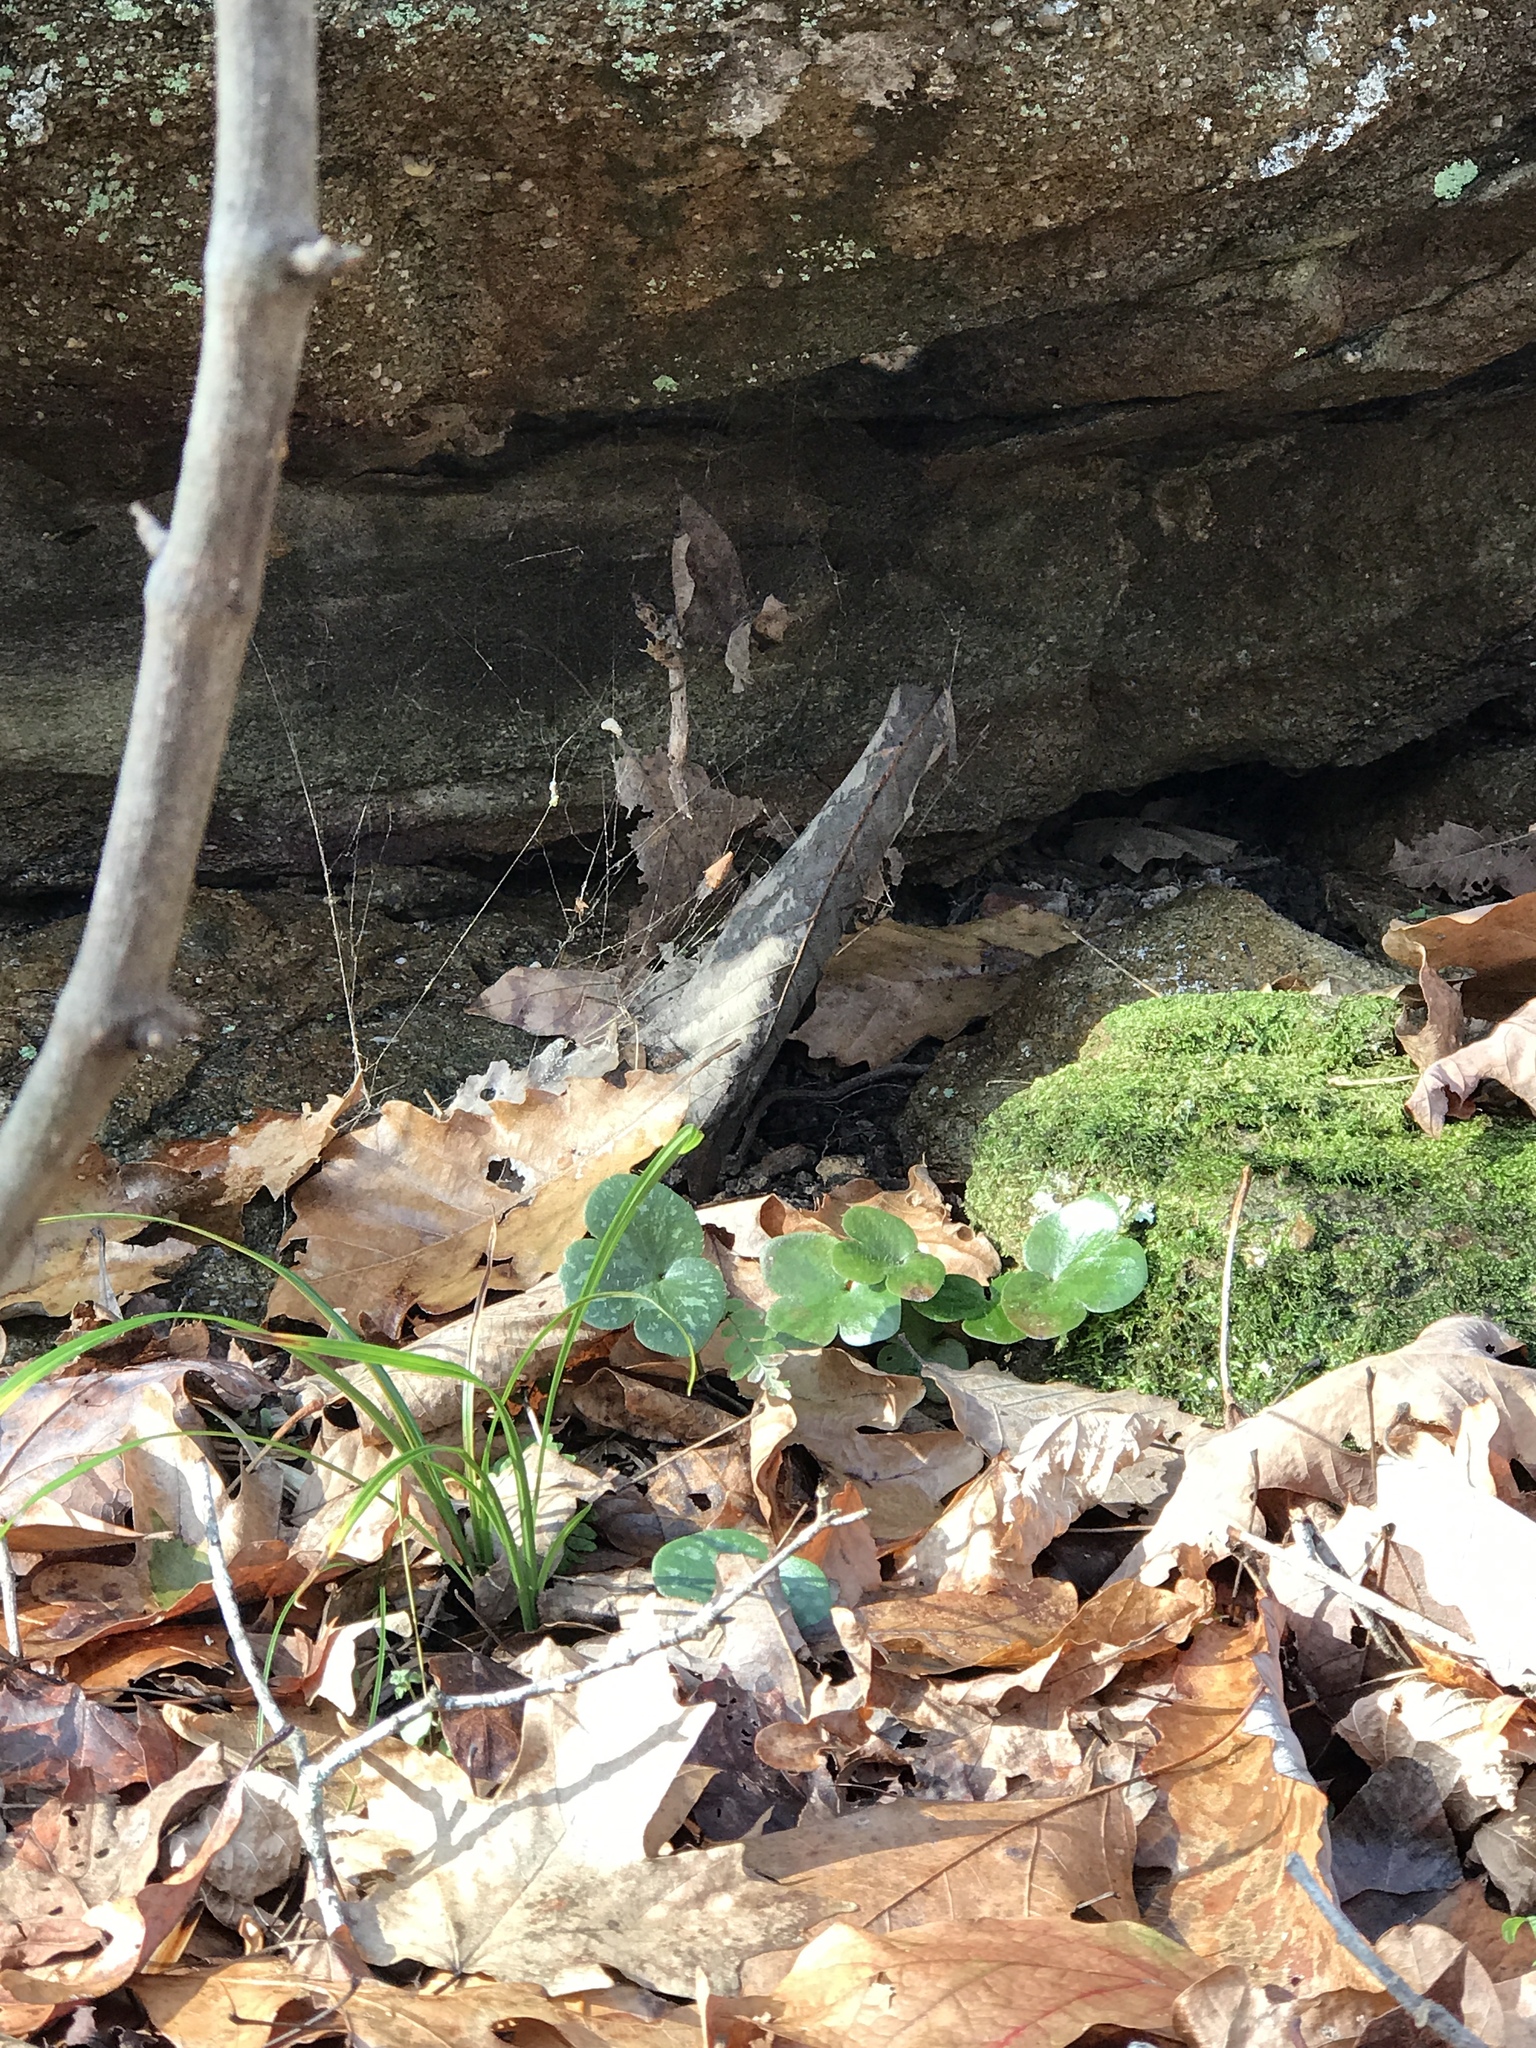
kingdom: Plantae
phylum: Tracheophyta
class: Magnoliopsida
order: Ranunculales
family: Ranunculaceae
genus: Hepatica
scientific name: Hepatica americana
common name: American hepatica
